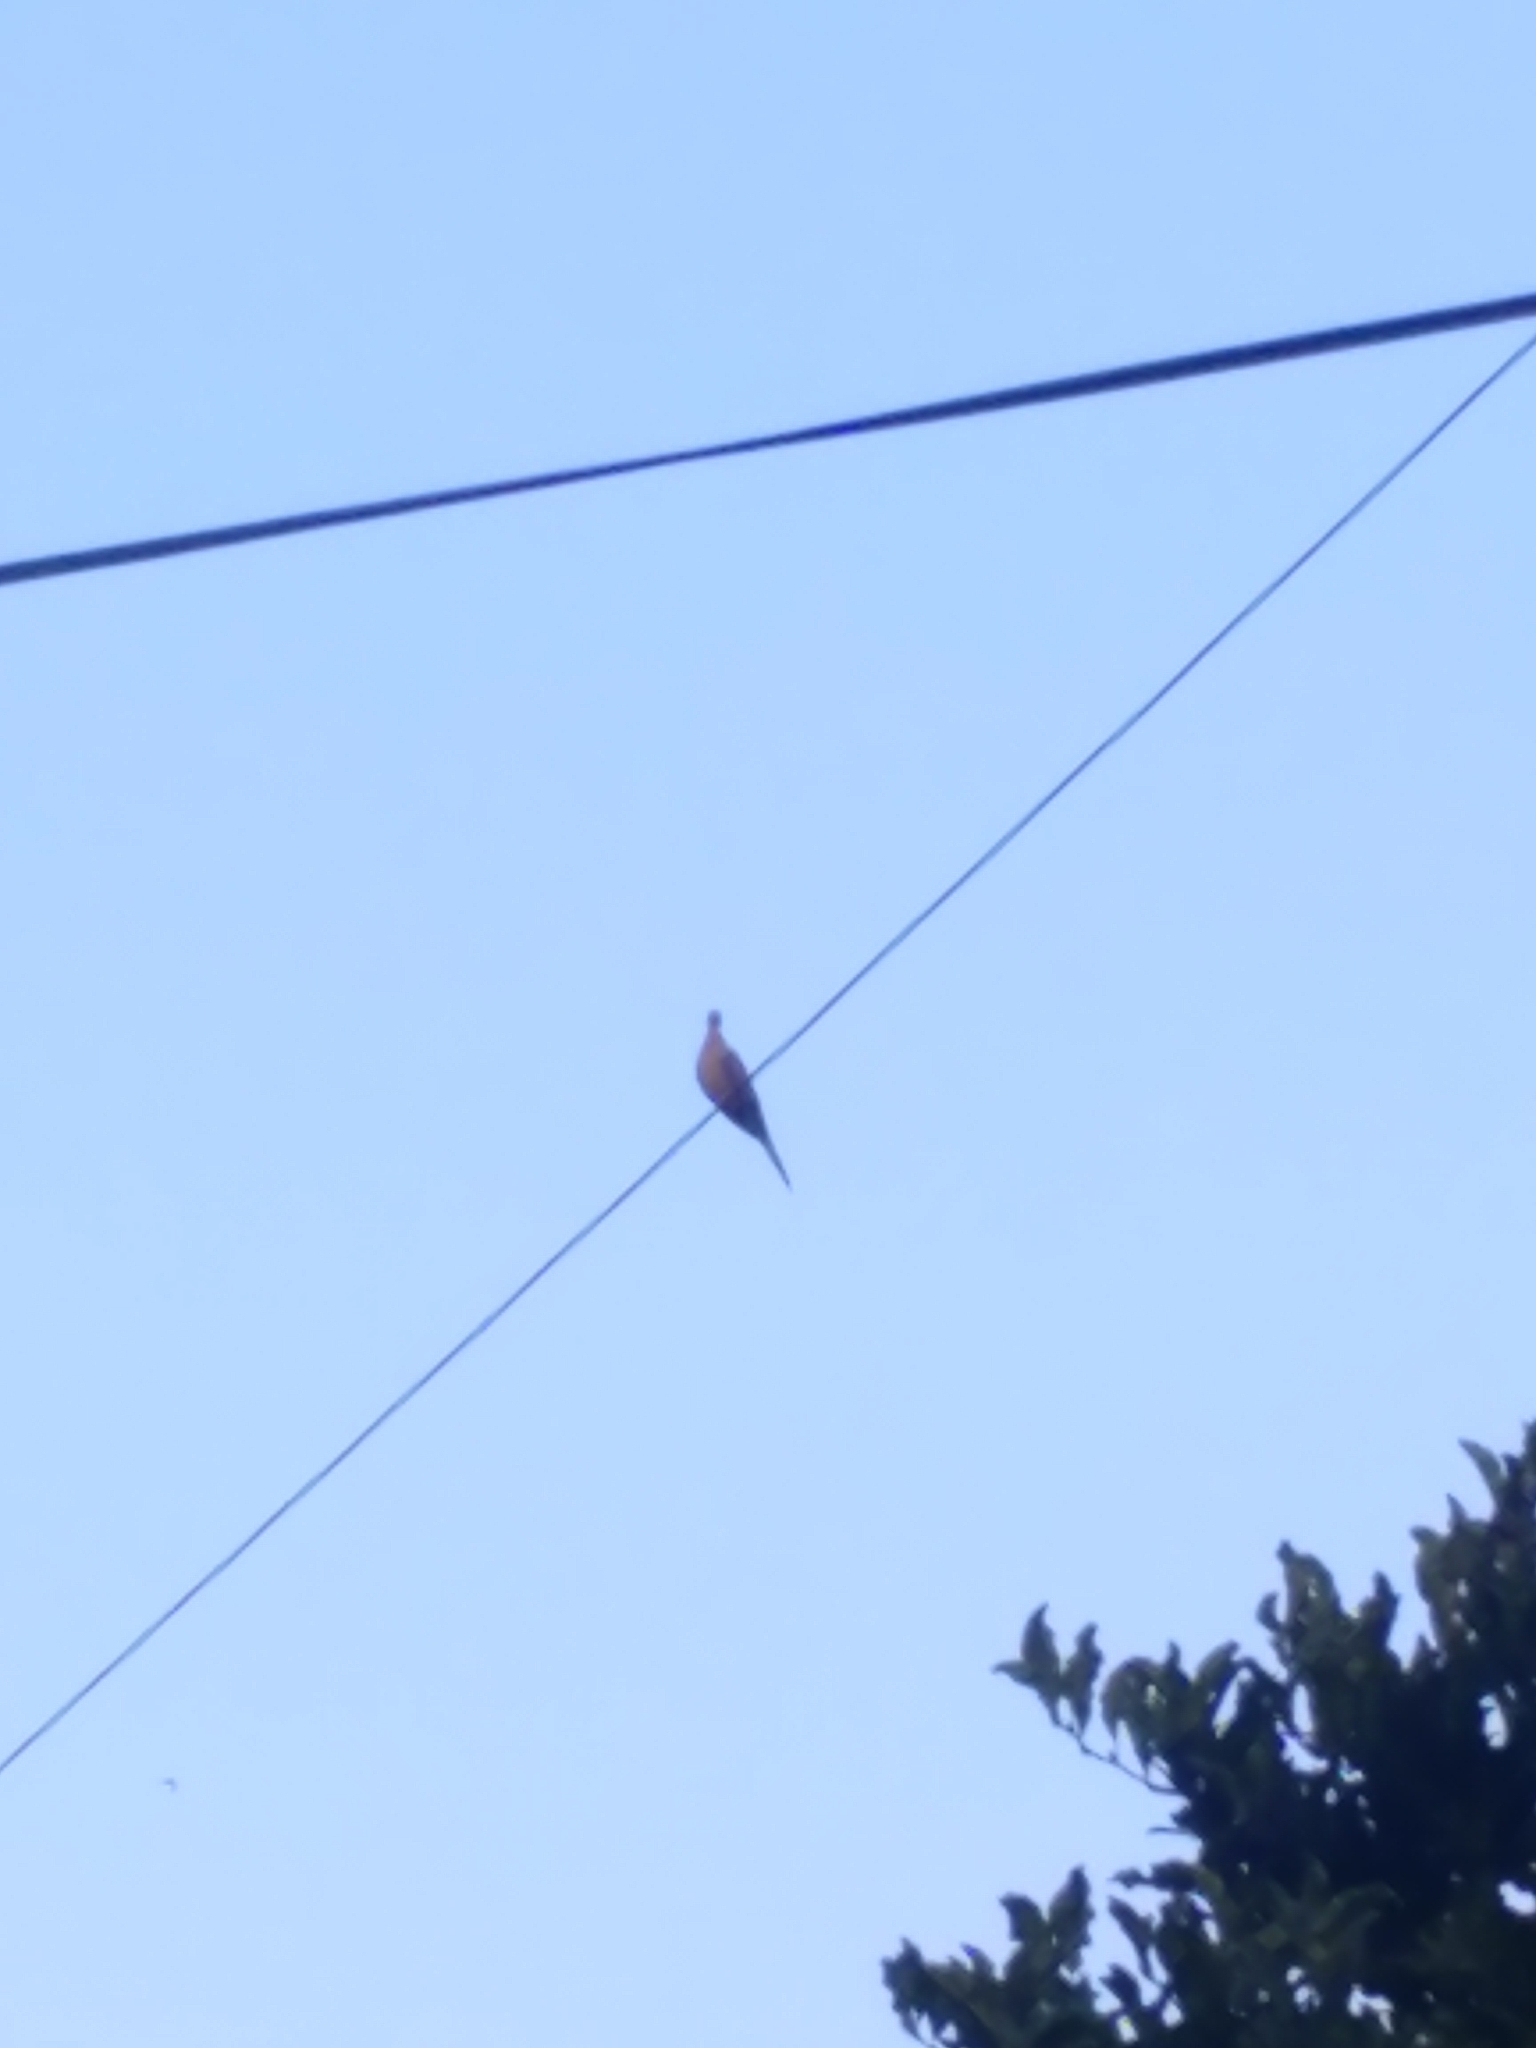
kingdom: Animalia
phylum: Chordata
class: Aves
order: Columbiformes
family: Columbidae
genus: Zenaida
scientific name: Zenaida macroura
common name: Mourning dove
